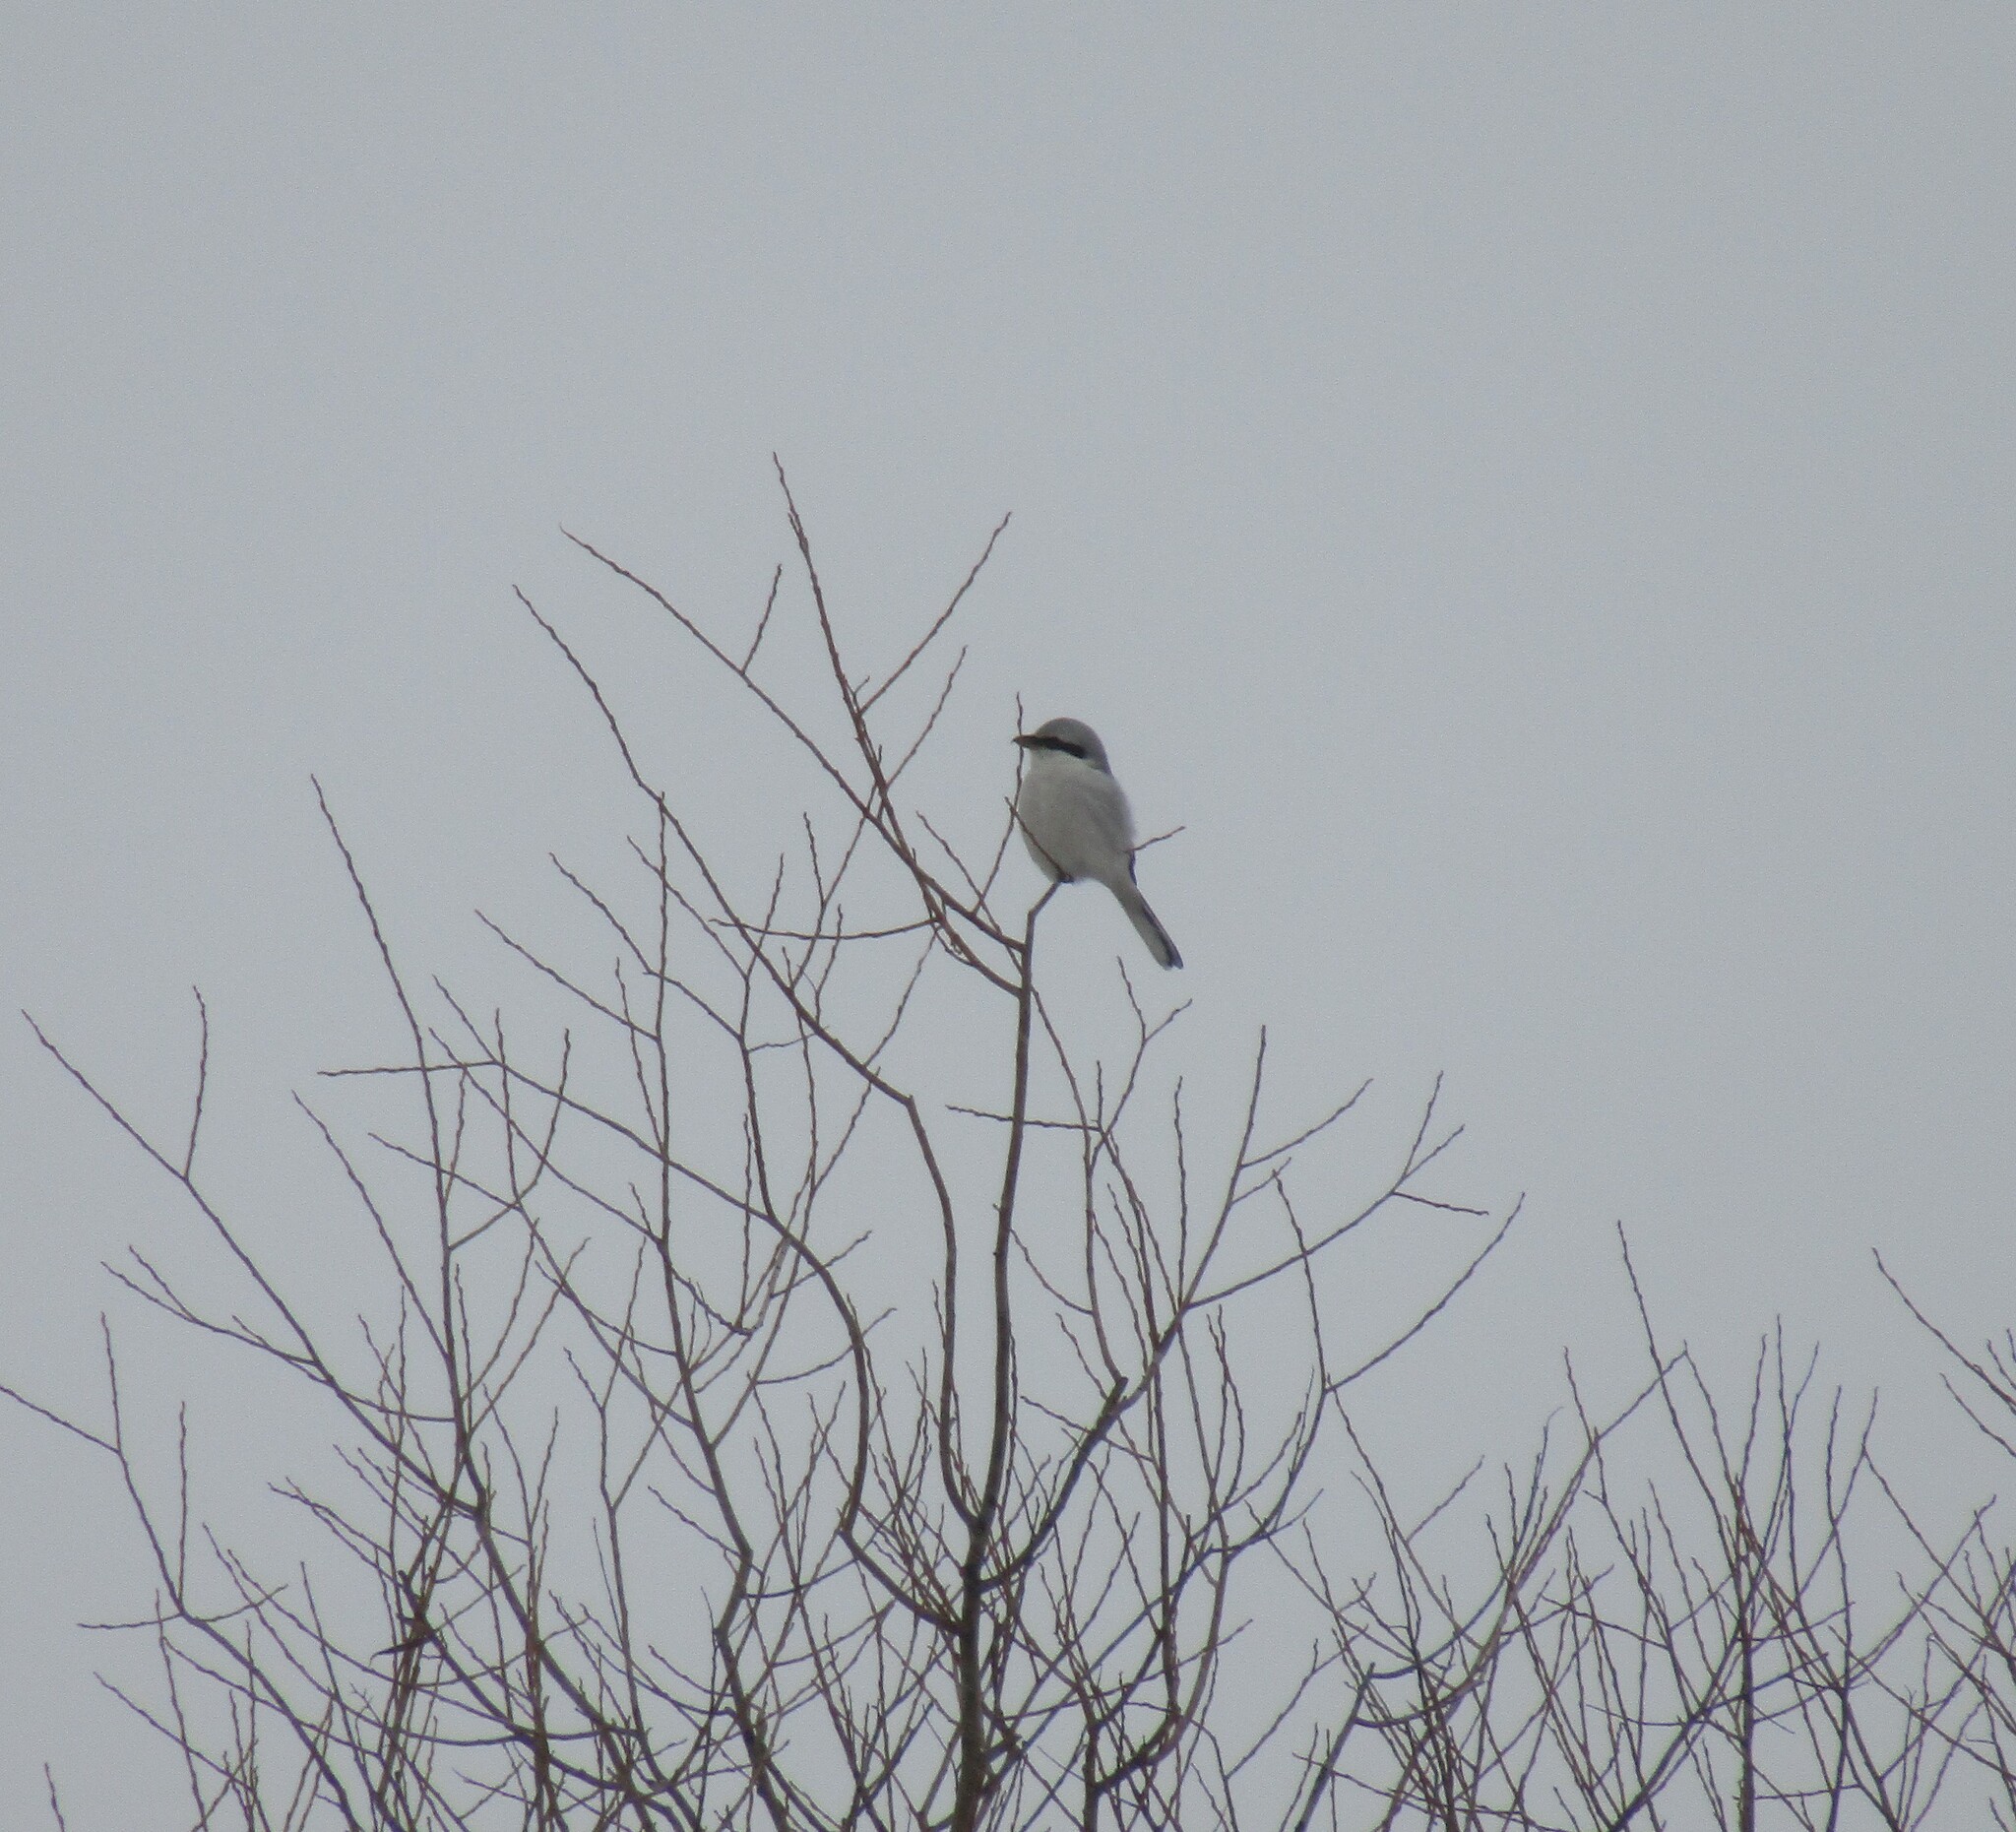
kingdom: Animalia
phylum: Chordata
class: Aves
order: Passeriformes
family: Laniidae
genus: Lanius
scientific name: Lanius excubitor
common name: Great grey shrike
